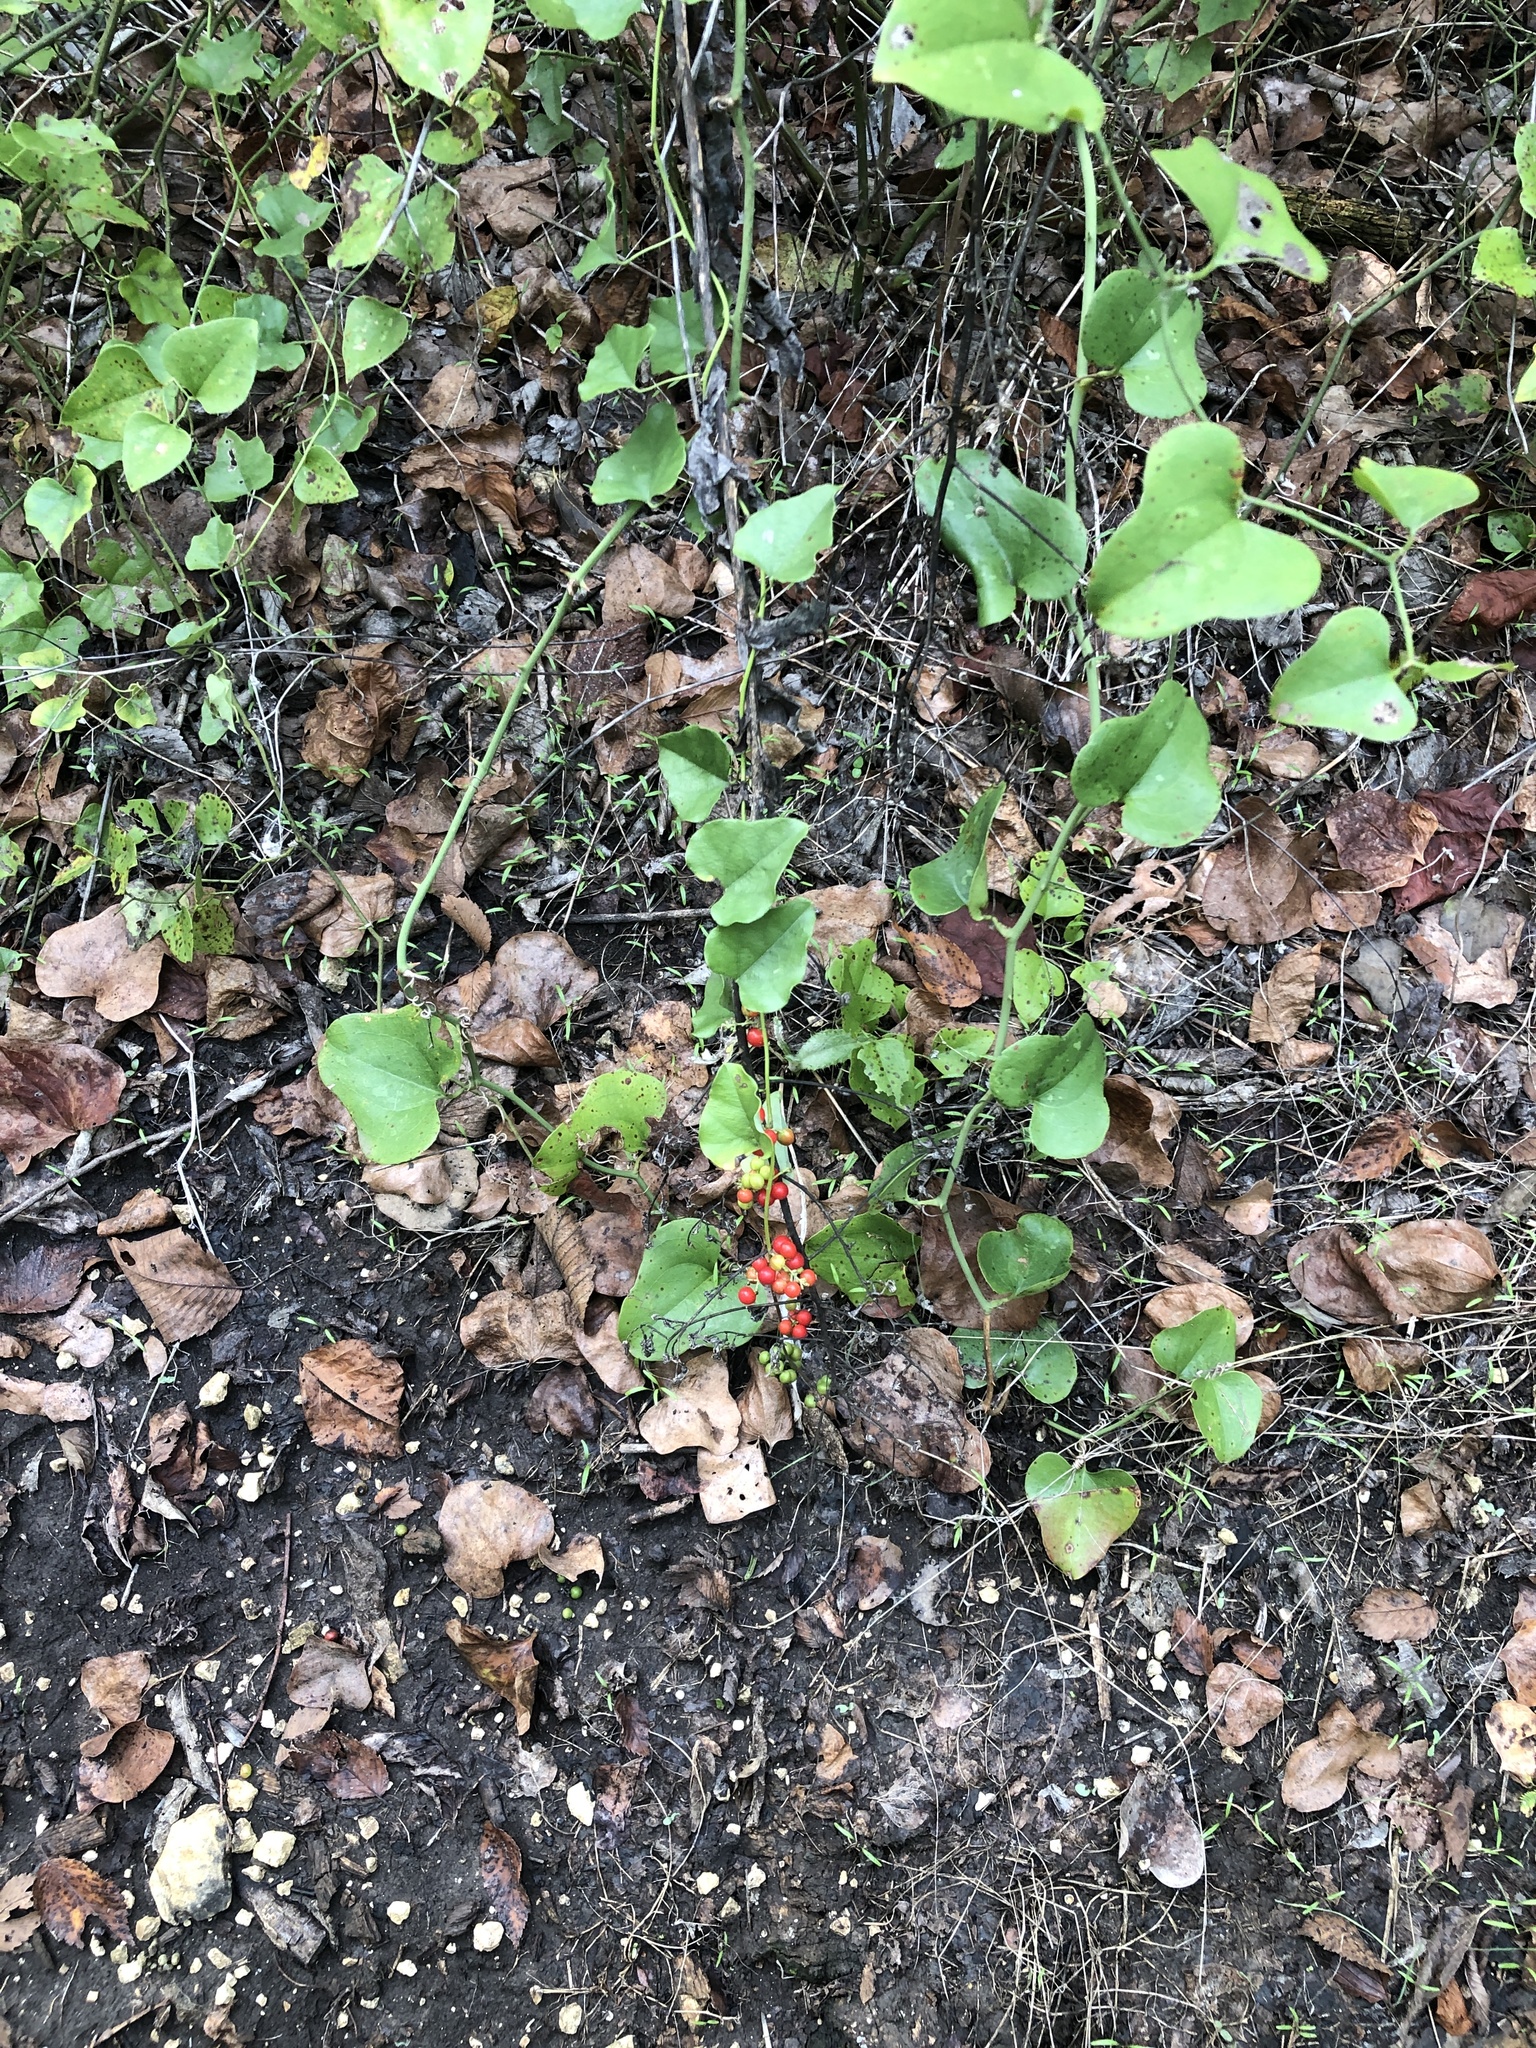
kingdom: Plantae
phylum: Tracheophyta
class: Magnoliopsida
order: Ranunculales
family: Menispermaceae
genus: Cocculus
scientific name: Cocculus carolinus
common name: Carolina moonseed
